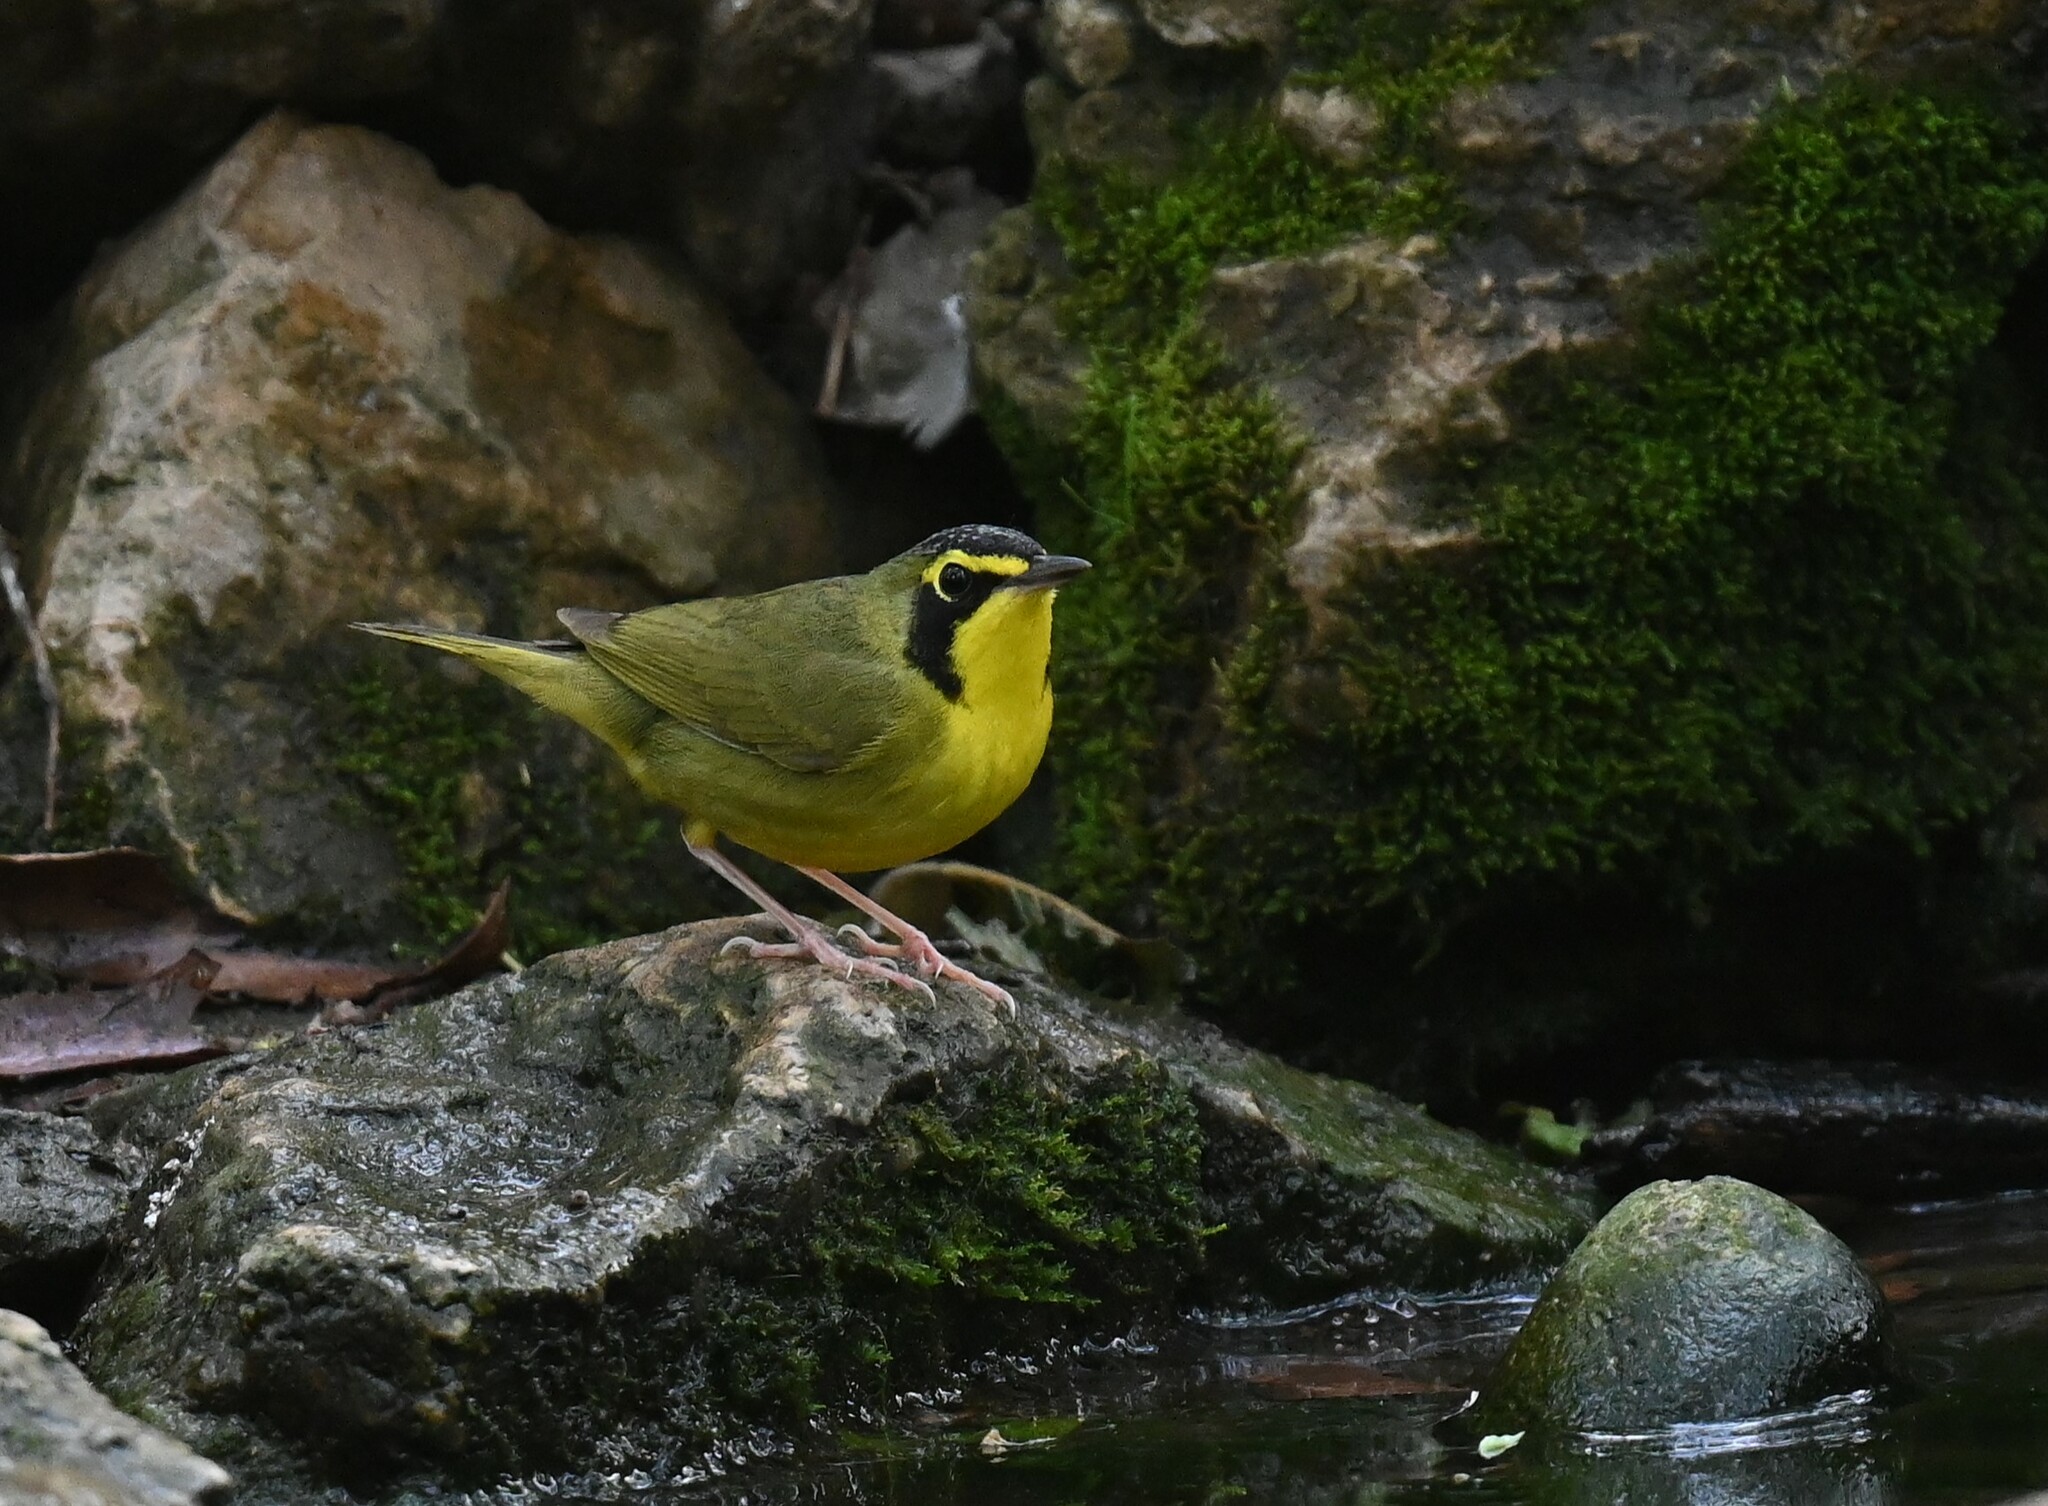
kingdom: Animalia
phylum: Chordata
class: Aves
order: Passeriformes
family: Parulidae
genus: Geothlypis
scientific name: Geothlypis formosa
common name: Kentucky warbler
